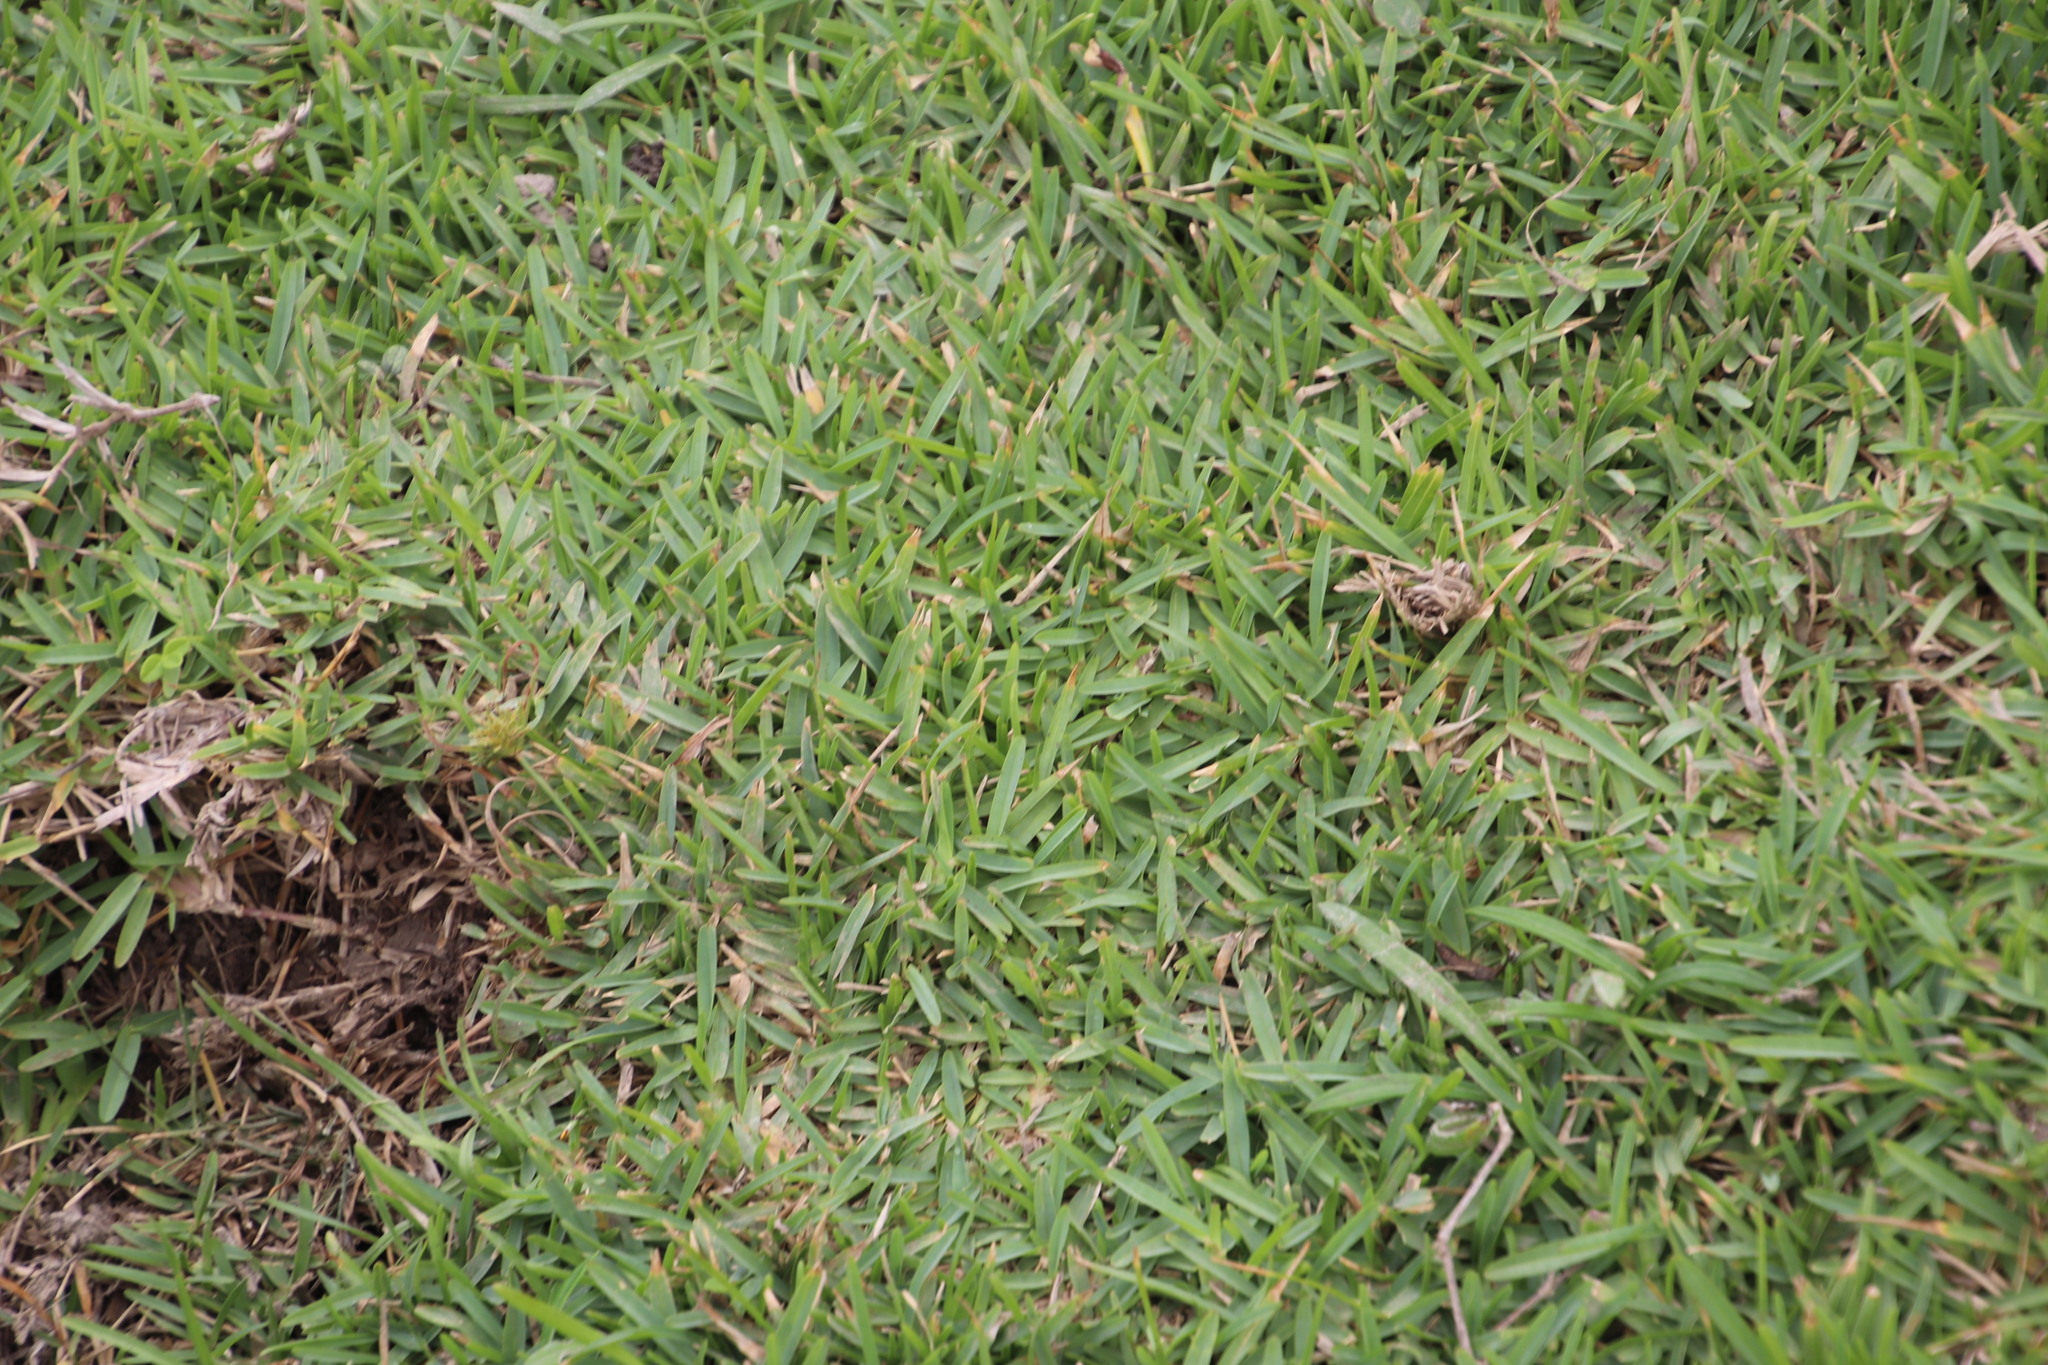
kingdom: Plantae
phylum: Tracheophyta
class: Liliopsida
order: Poales
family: Poaceae
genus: Stenotaphrum
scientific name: Stenotaphrum secundatum
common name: St. augustine grass
